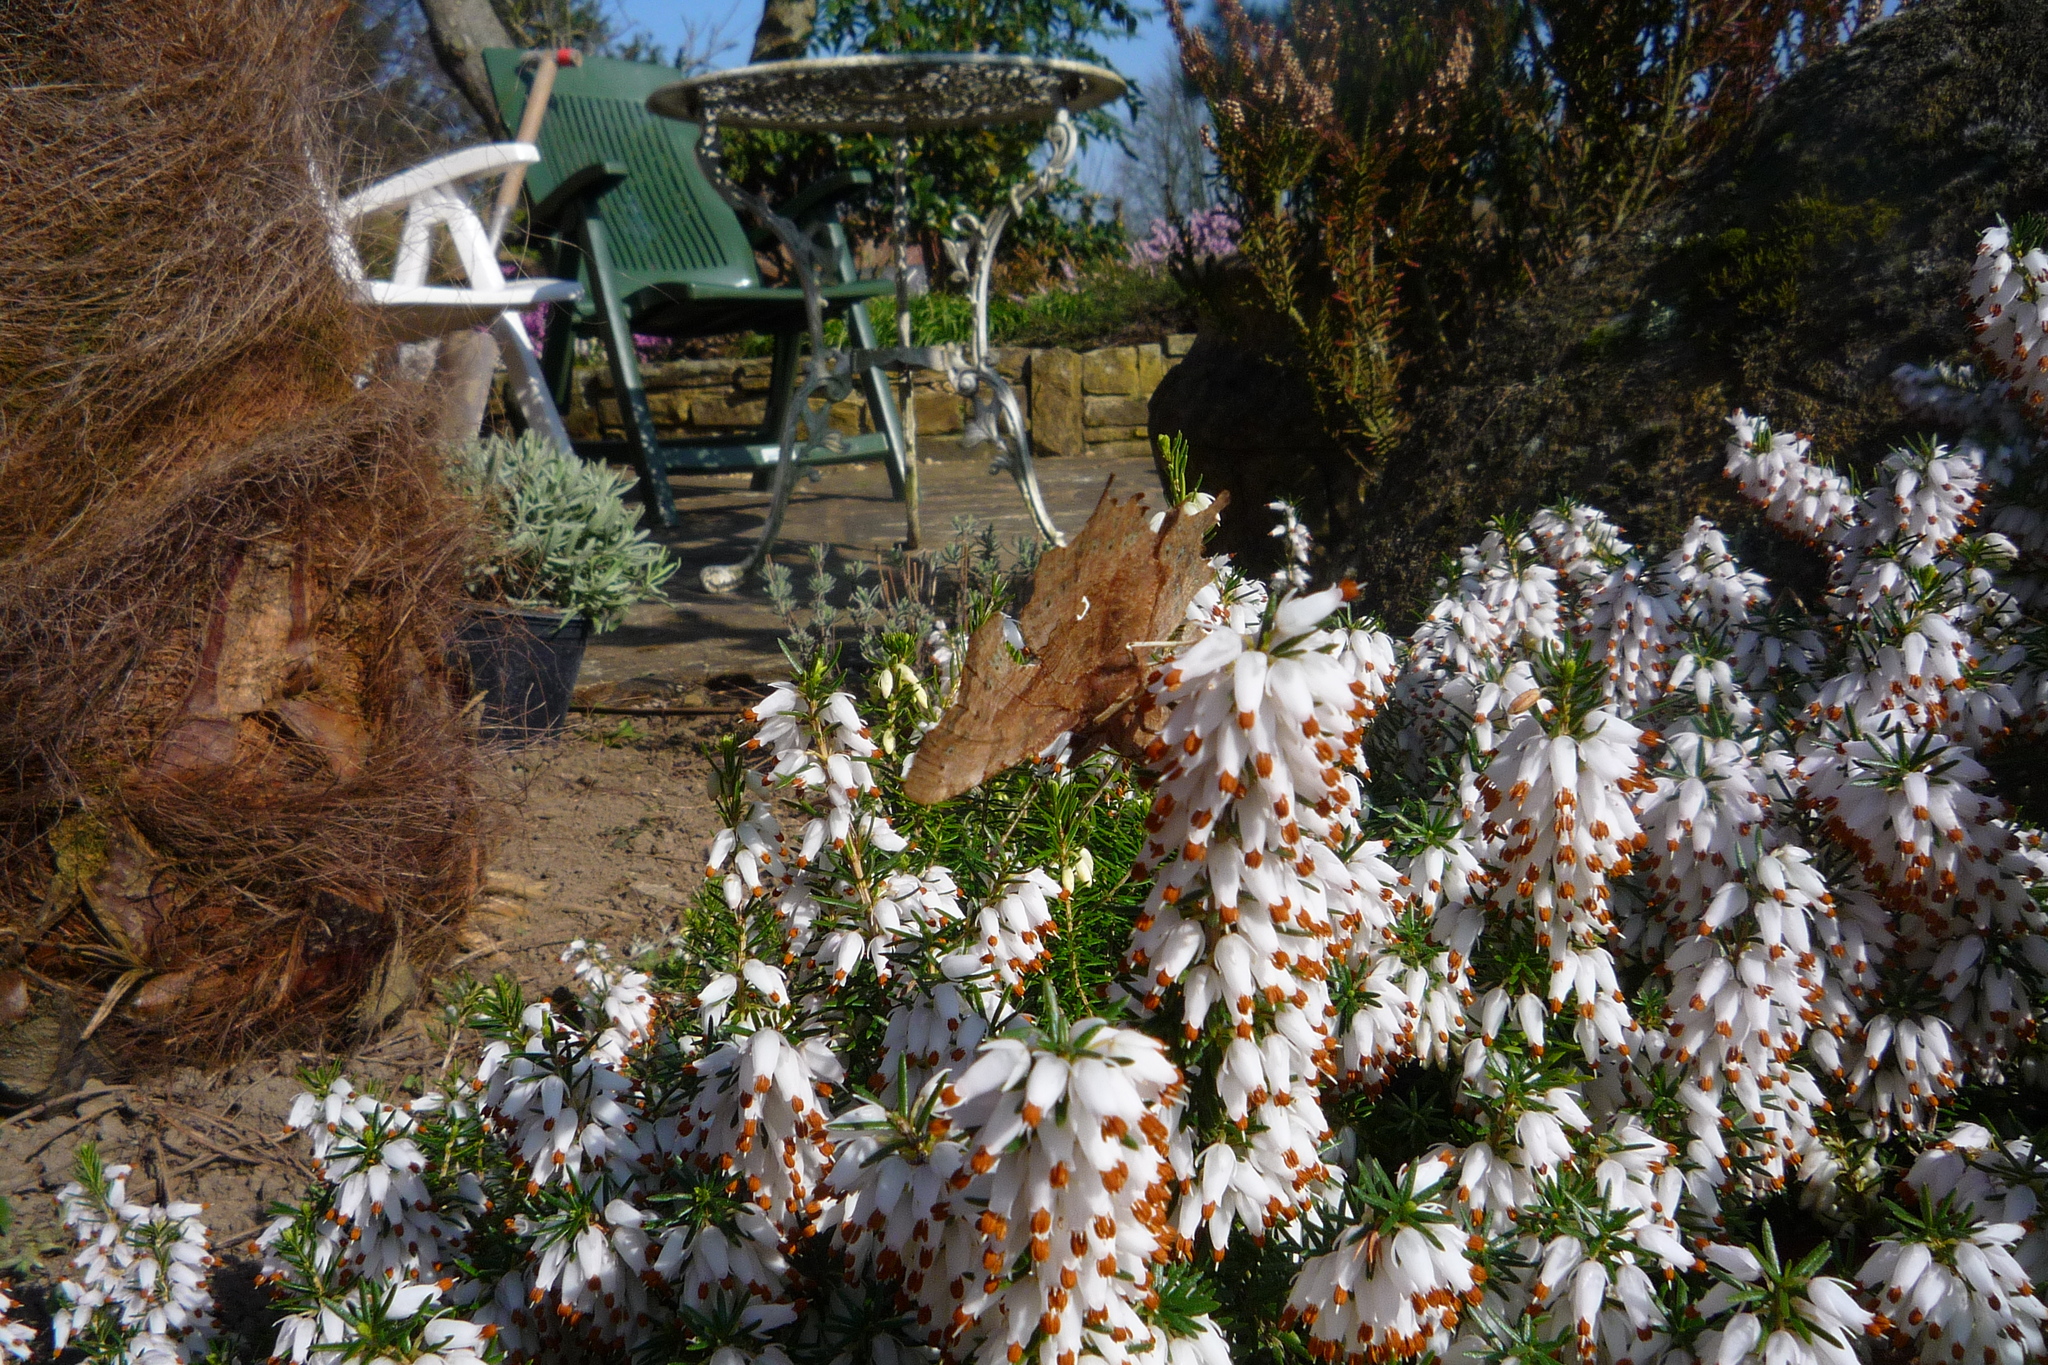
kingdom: Animalia
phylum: Arthropoda
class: Insecta
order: Lepidoptera
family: Nymphalidae
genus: Polygonia
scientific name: Polygonia c-album
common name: Comma
